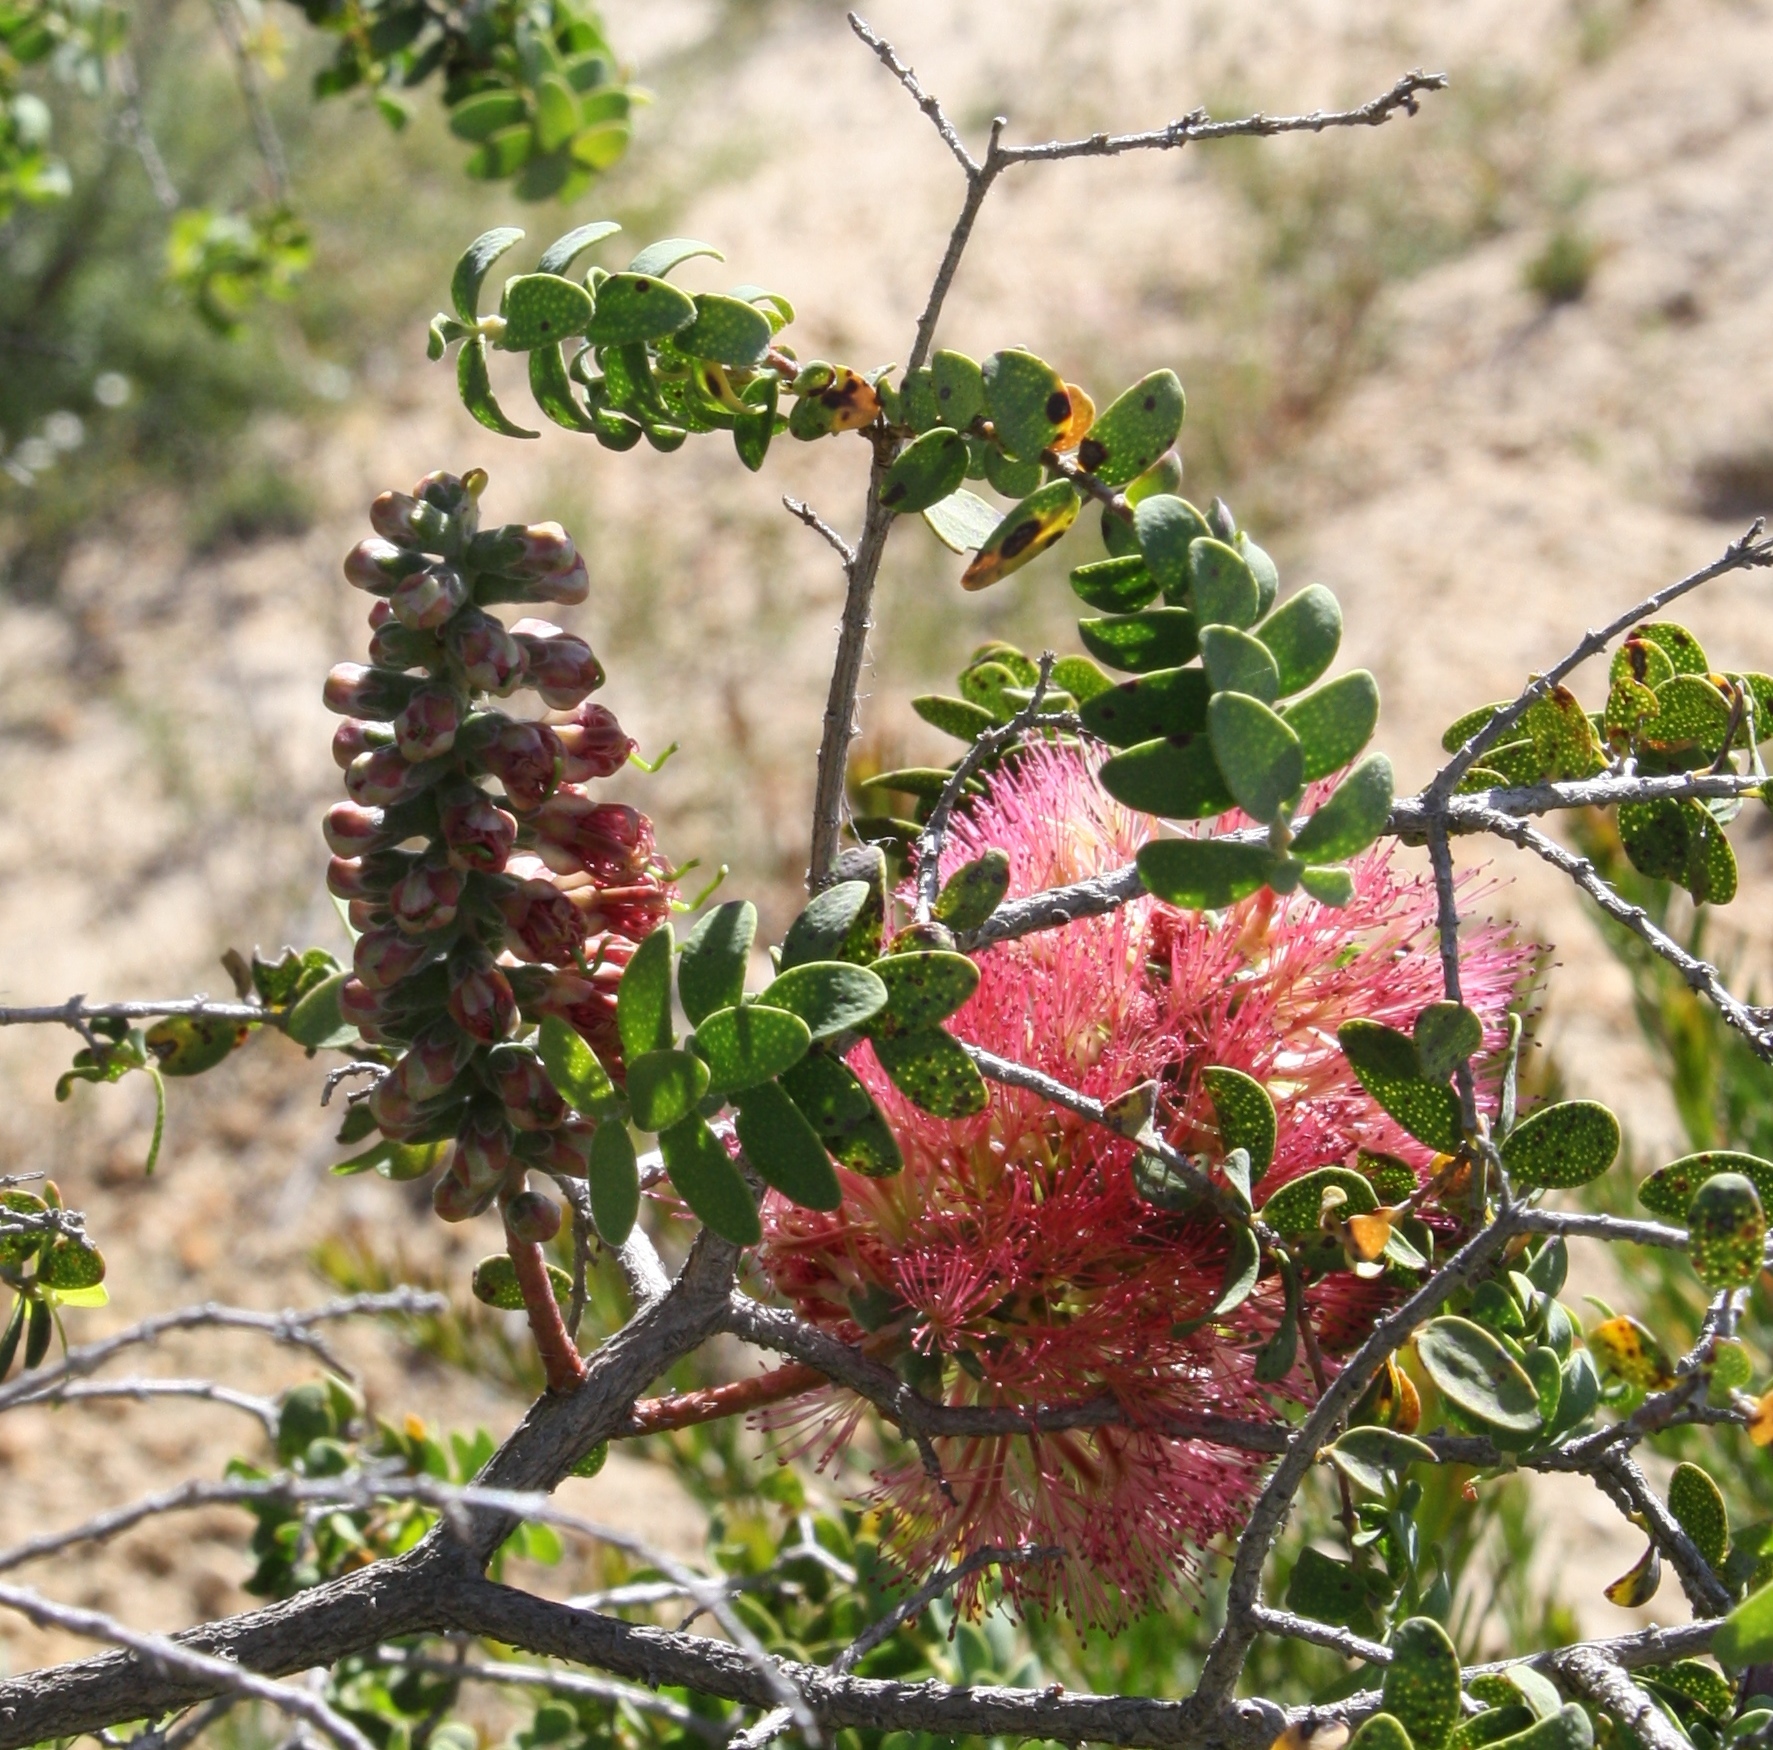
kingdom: Plantae
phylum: Tracheophyta
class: Magnoliopsida
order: Myrtales
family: Myrtaceae
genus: Melaleuca
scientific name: Melaleuca elliptica
